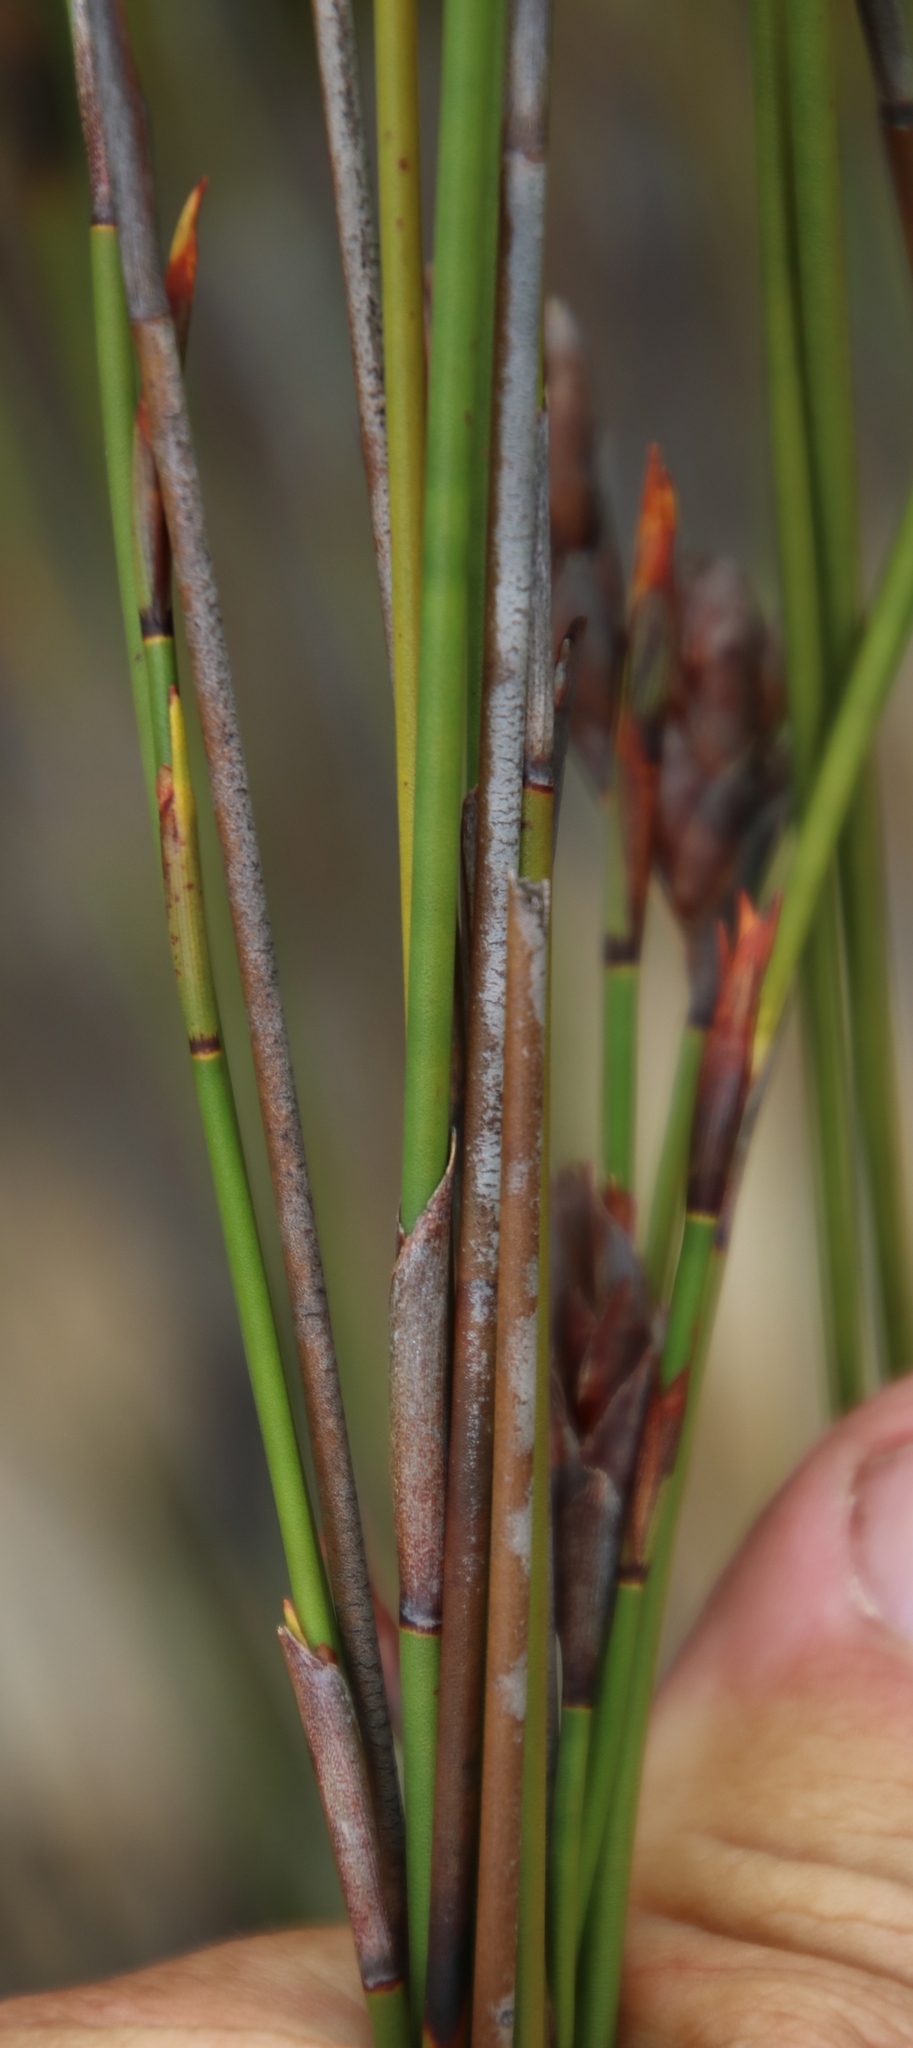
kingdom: Plantae
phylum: Tracheophyta
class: Liliopsida
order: Poales
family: Restionaceae
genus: Restio
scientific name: Restio bifarius
